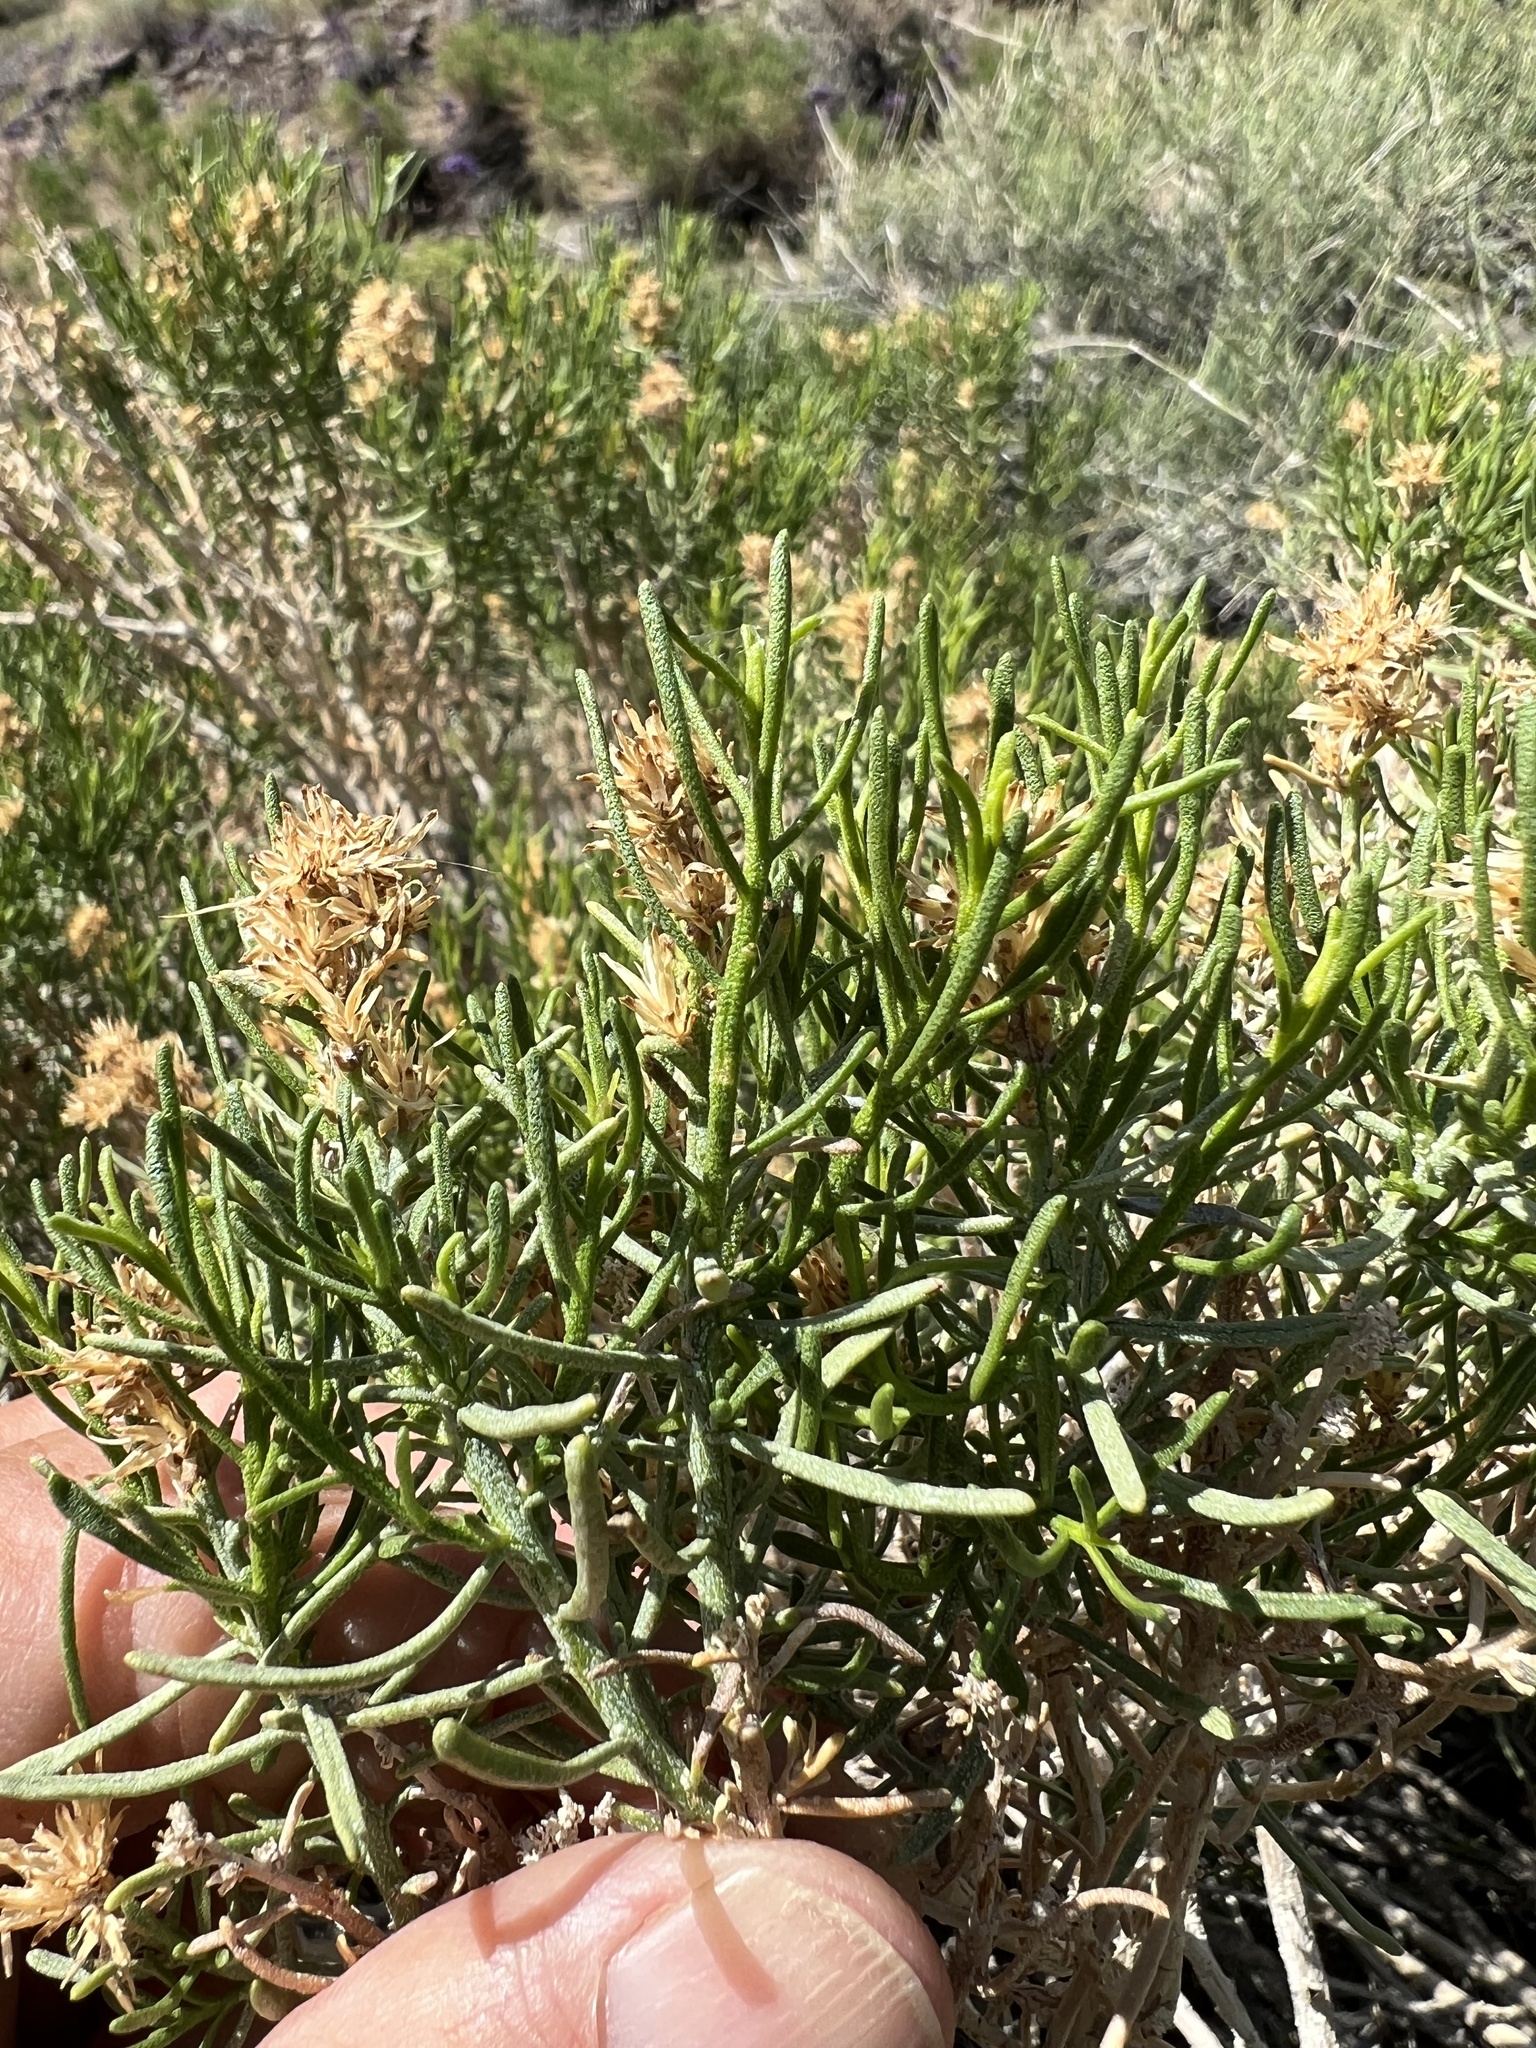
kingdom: Plantae
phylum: Tracheophyta
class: Magnoliopsida
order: Asterales
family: Asteraceae
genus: Ericameria
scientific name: Ericameria teretifolia
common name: Round-leaf rabbitbrush
